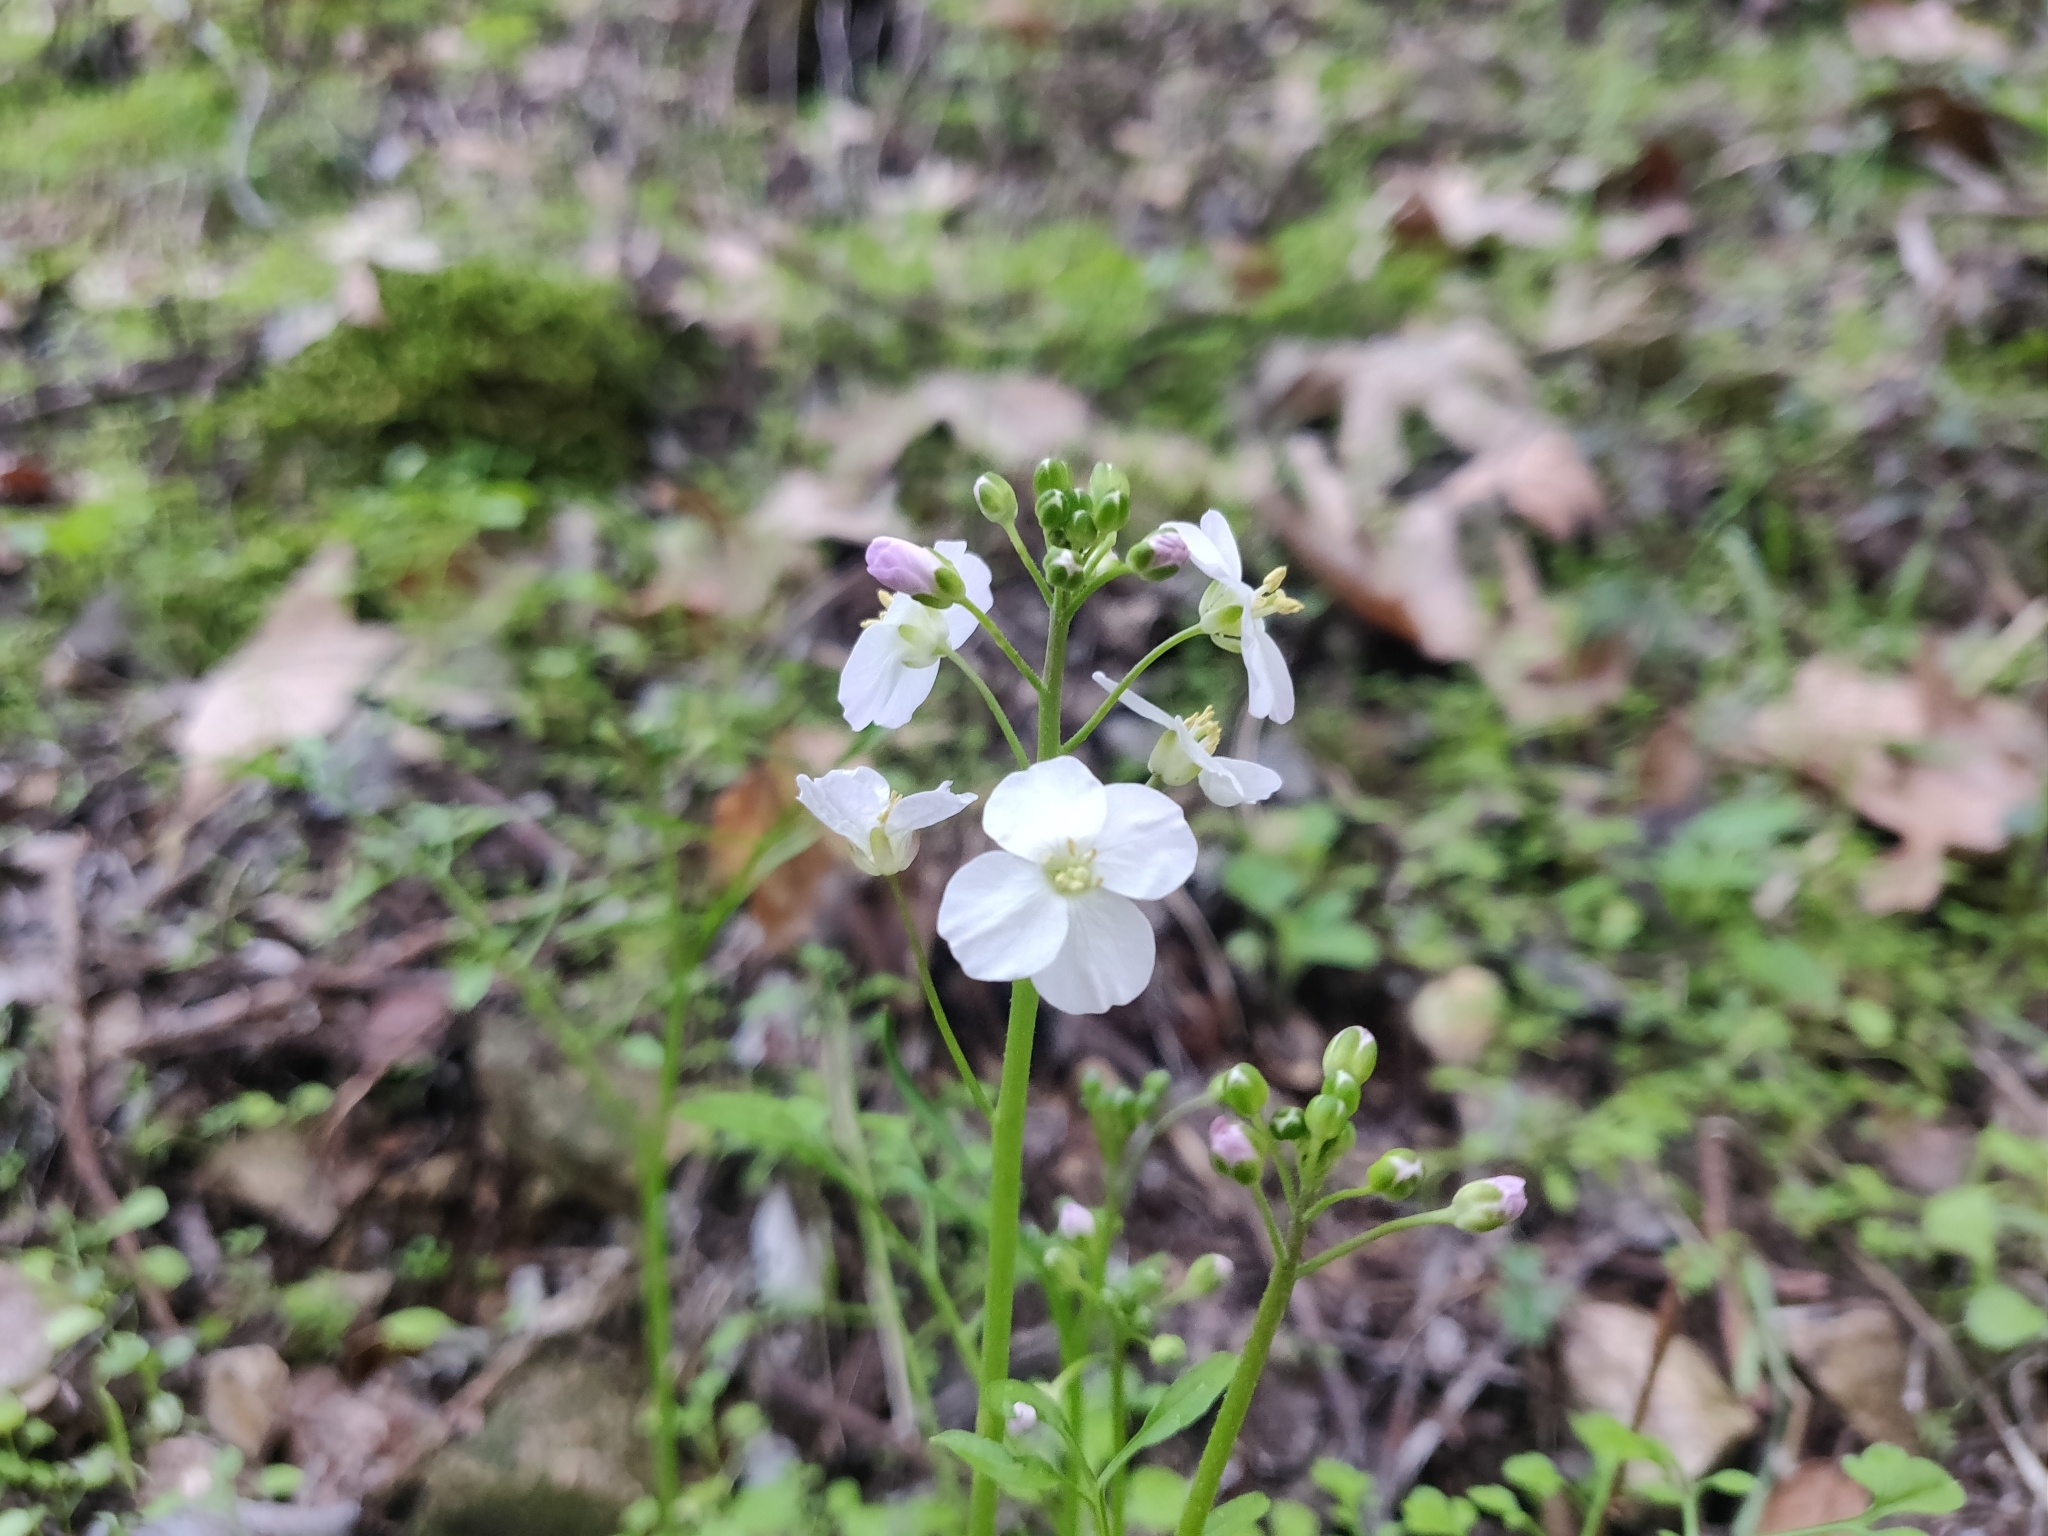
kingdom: Plantae
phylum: Tracheophyta
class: Magnoliopsida
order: Brassicales
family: Brassicaceae
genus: Cardamine
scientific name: Cardamine californica
